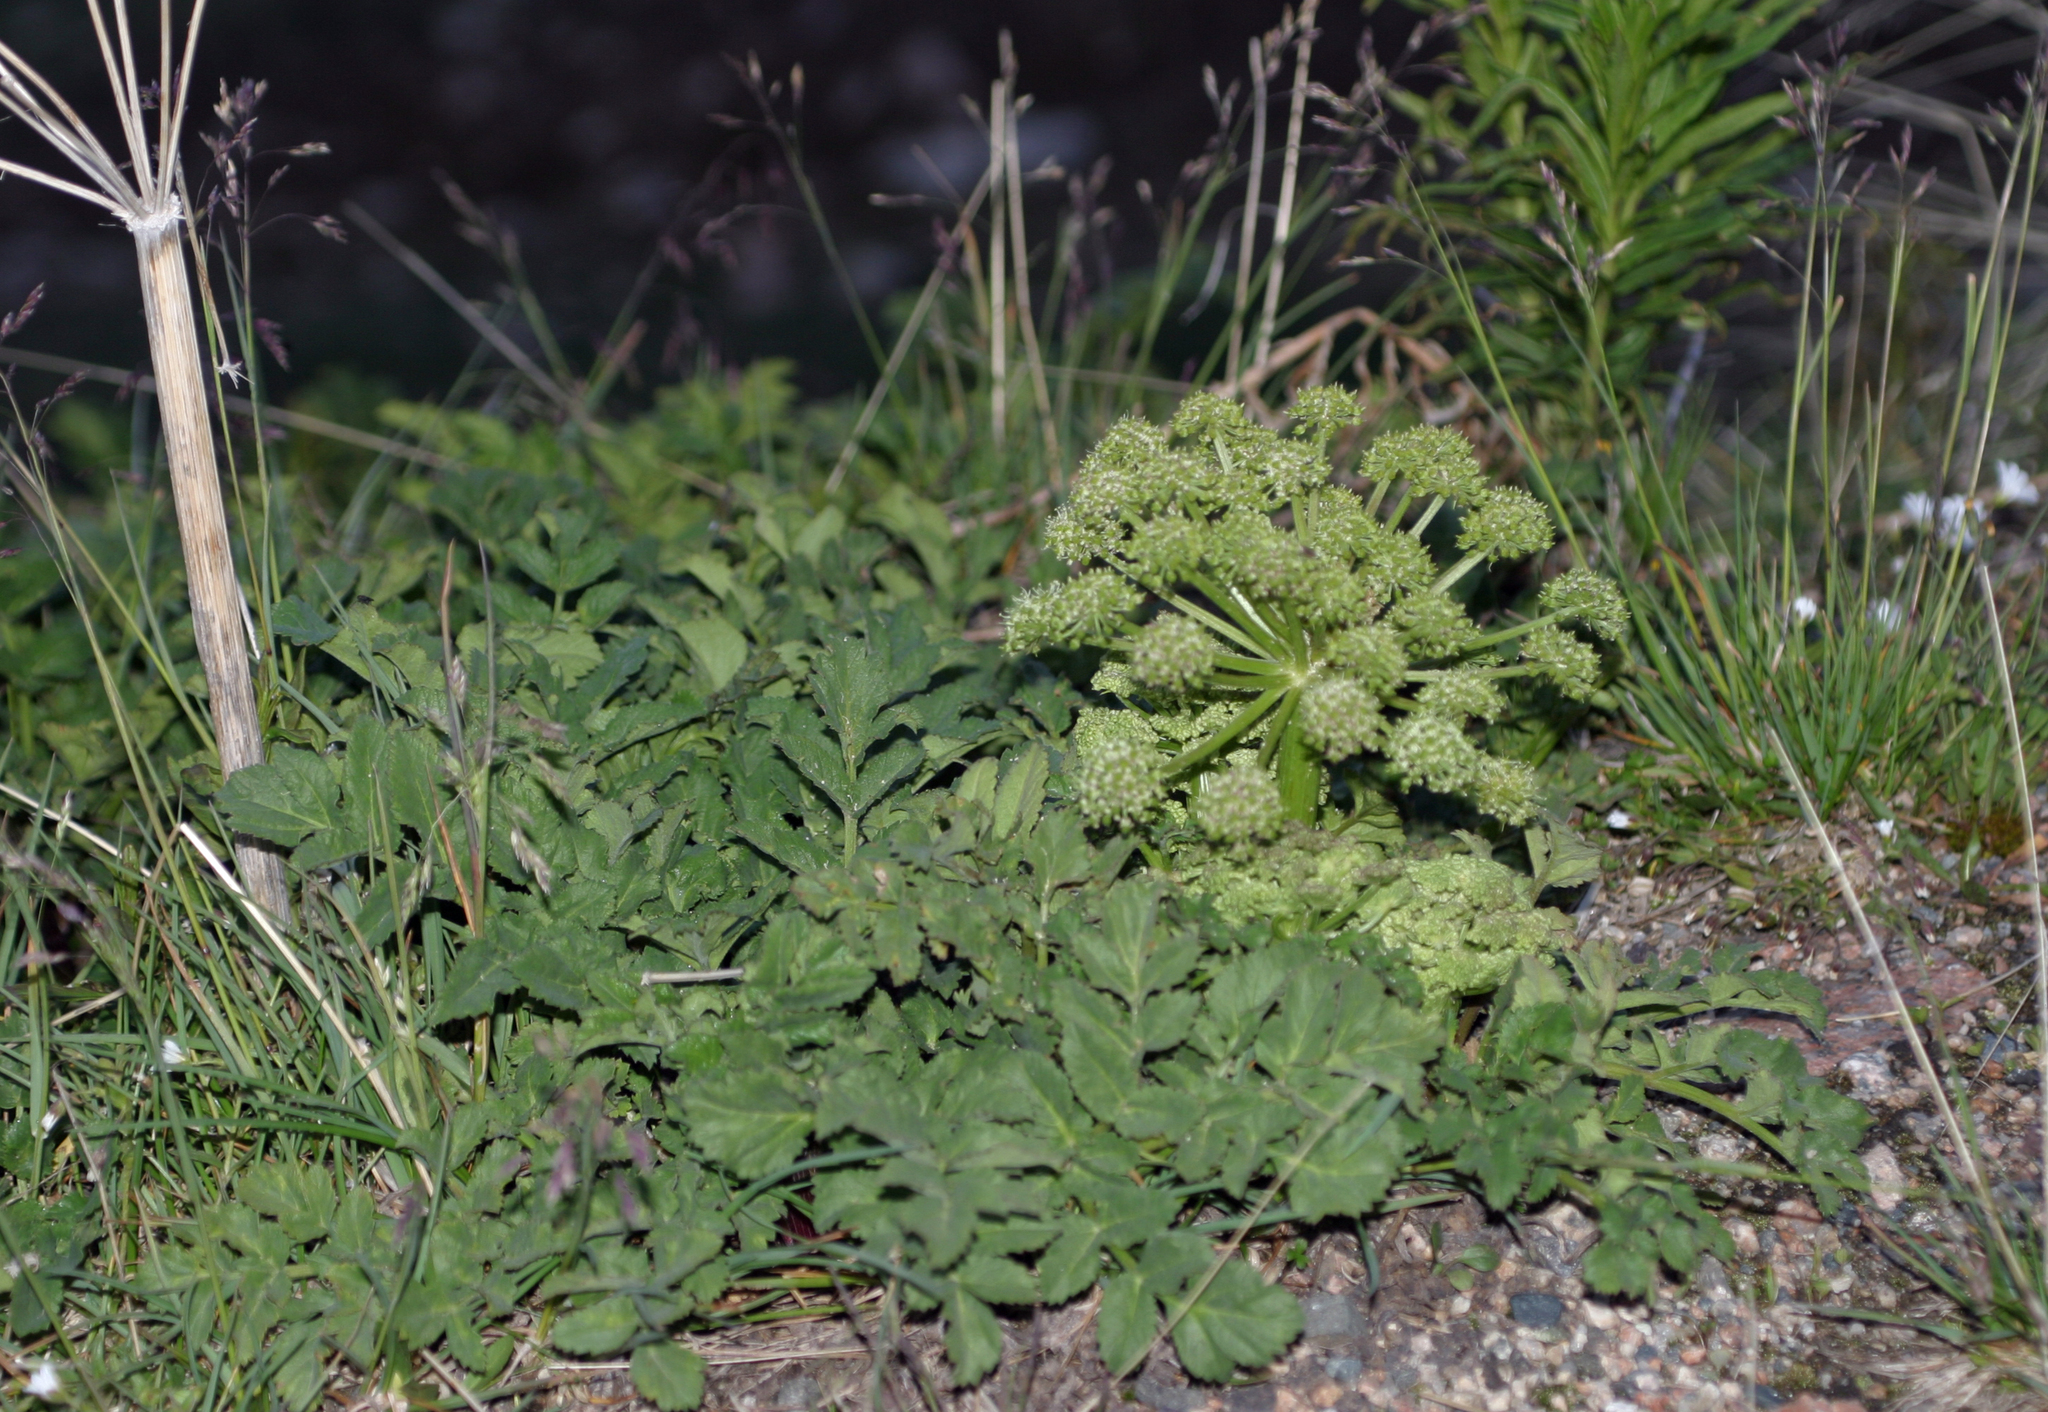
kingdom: Plantae
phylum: Tracheophyta
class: Magnoliopsida
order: Apiales
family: Apiaceae
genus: Angelica
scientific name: Angelica brevicaulis
